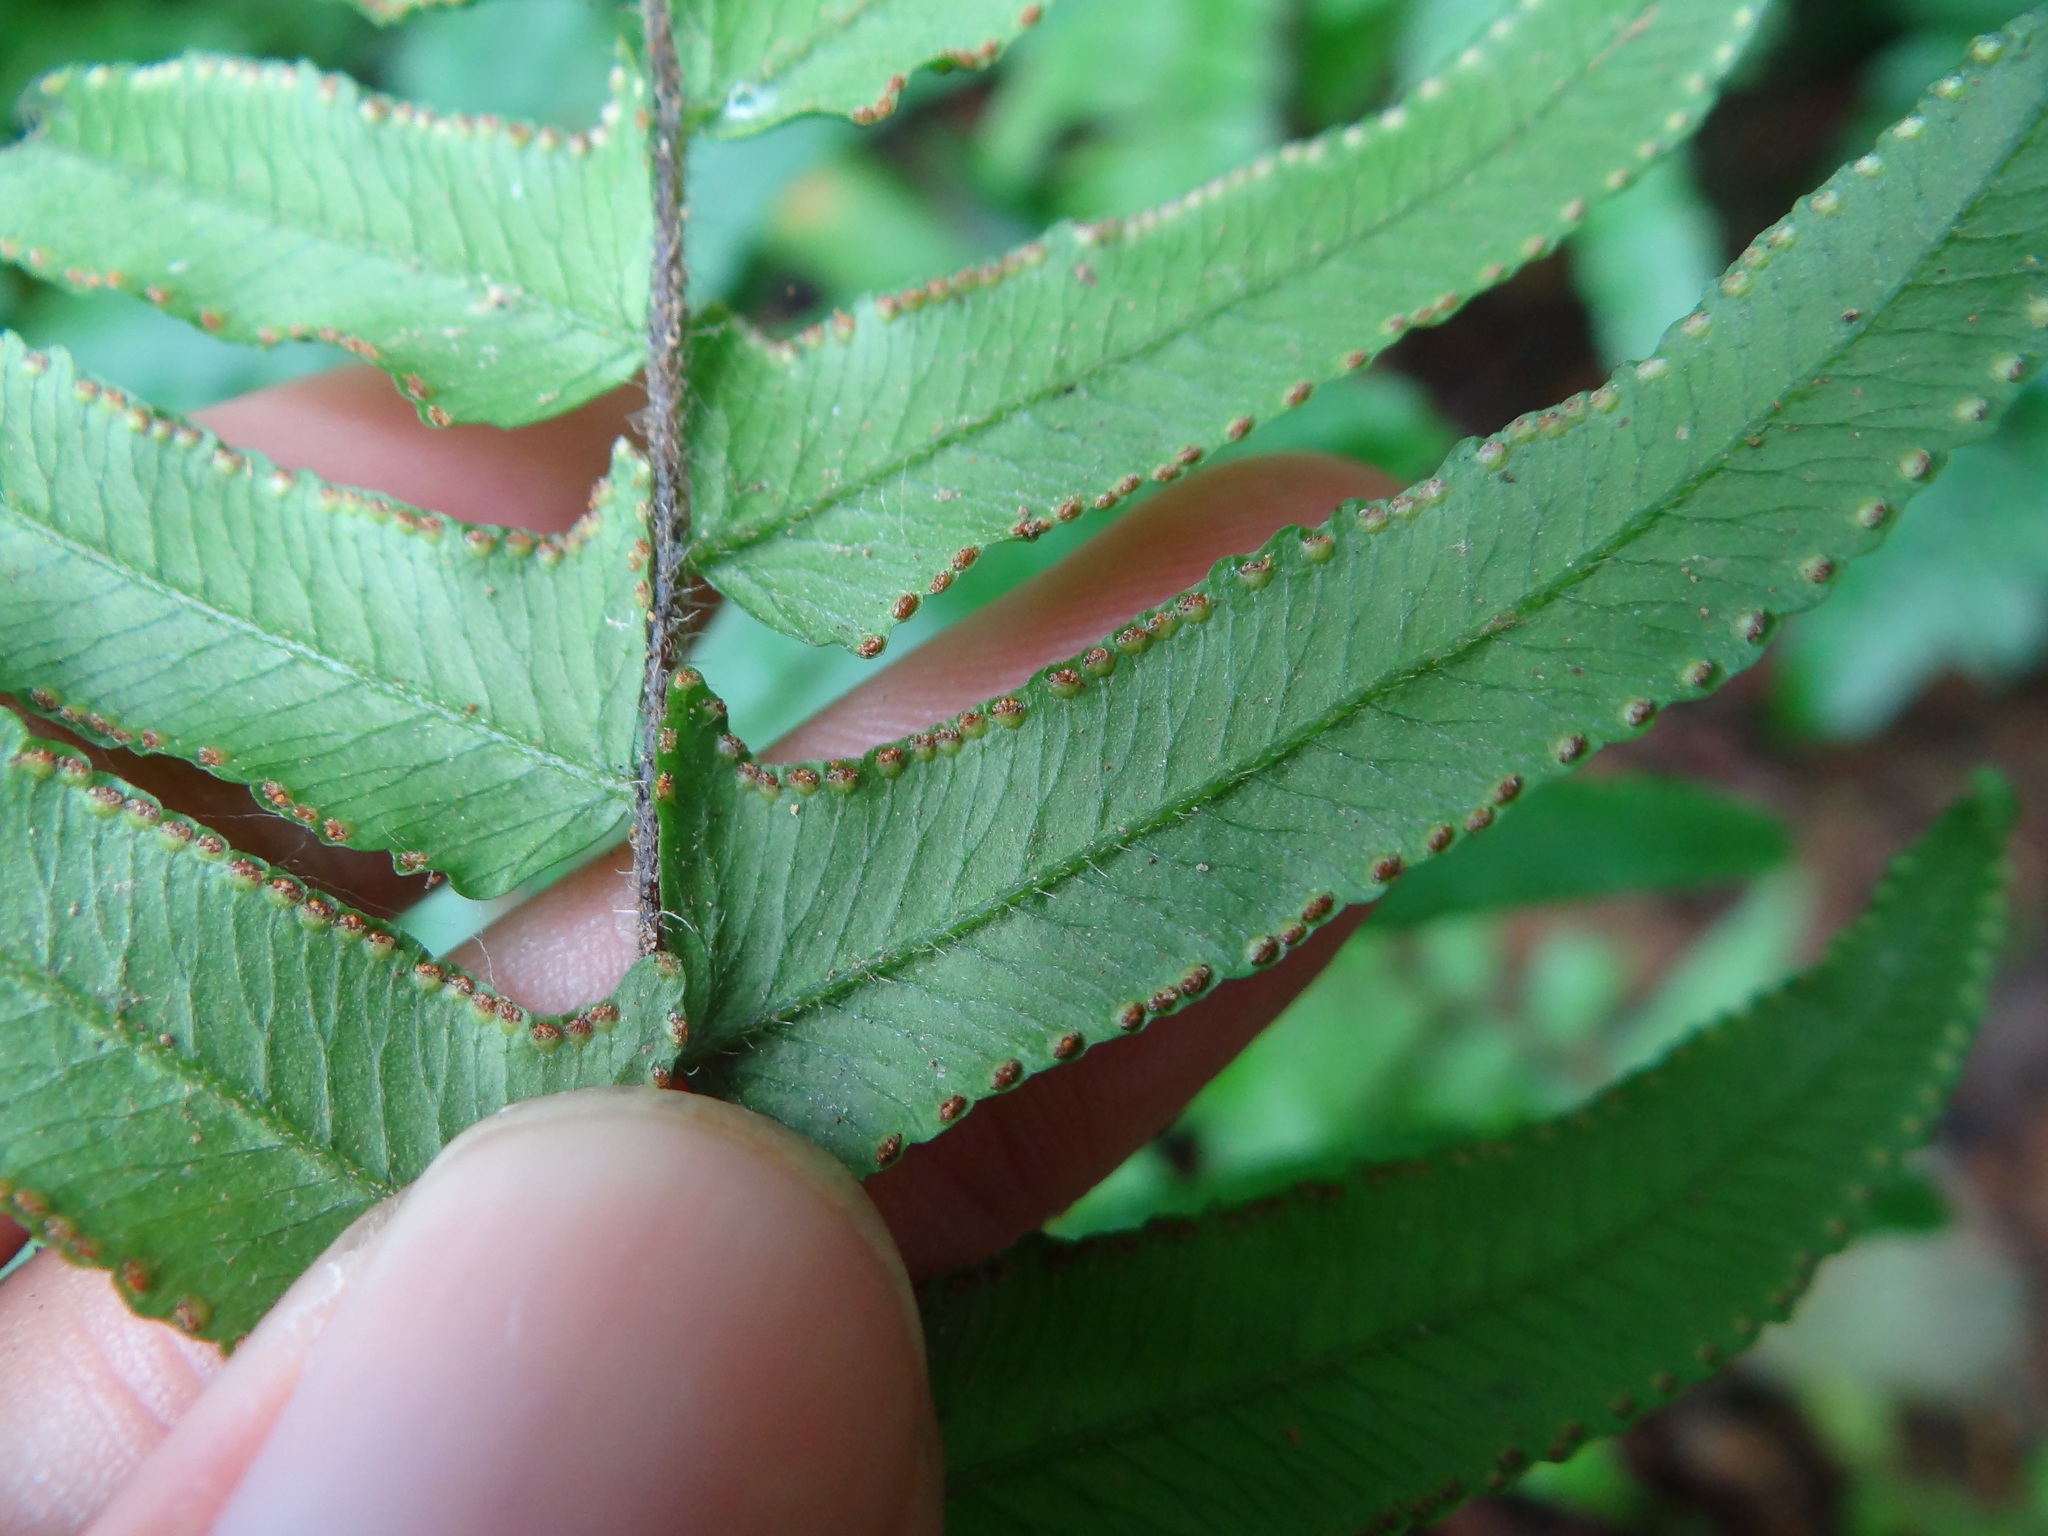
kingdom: Plantae
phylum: Tracheophyta
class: Polypodiopsida
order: Polypodiales
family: Dennstaedtiaceae
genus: Microlepia
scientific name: Microlepia hookeriana
